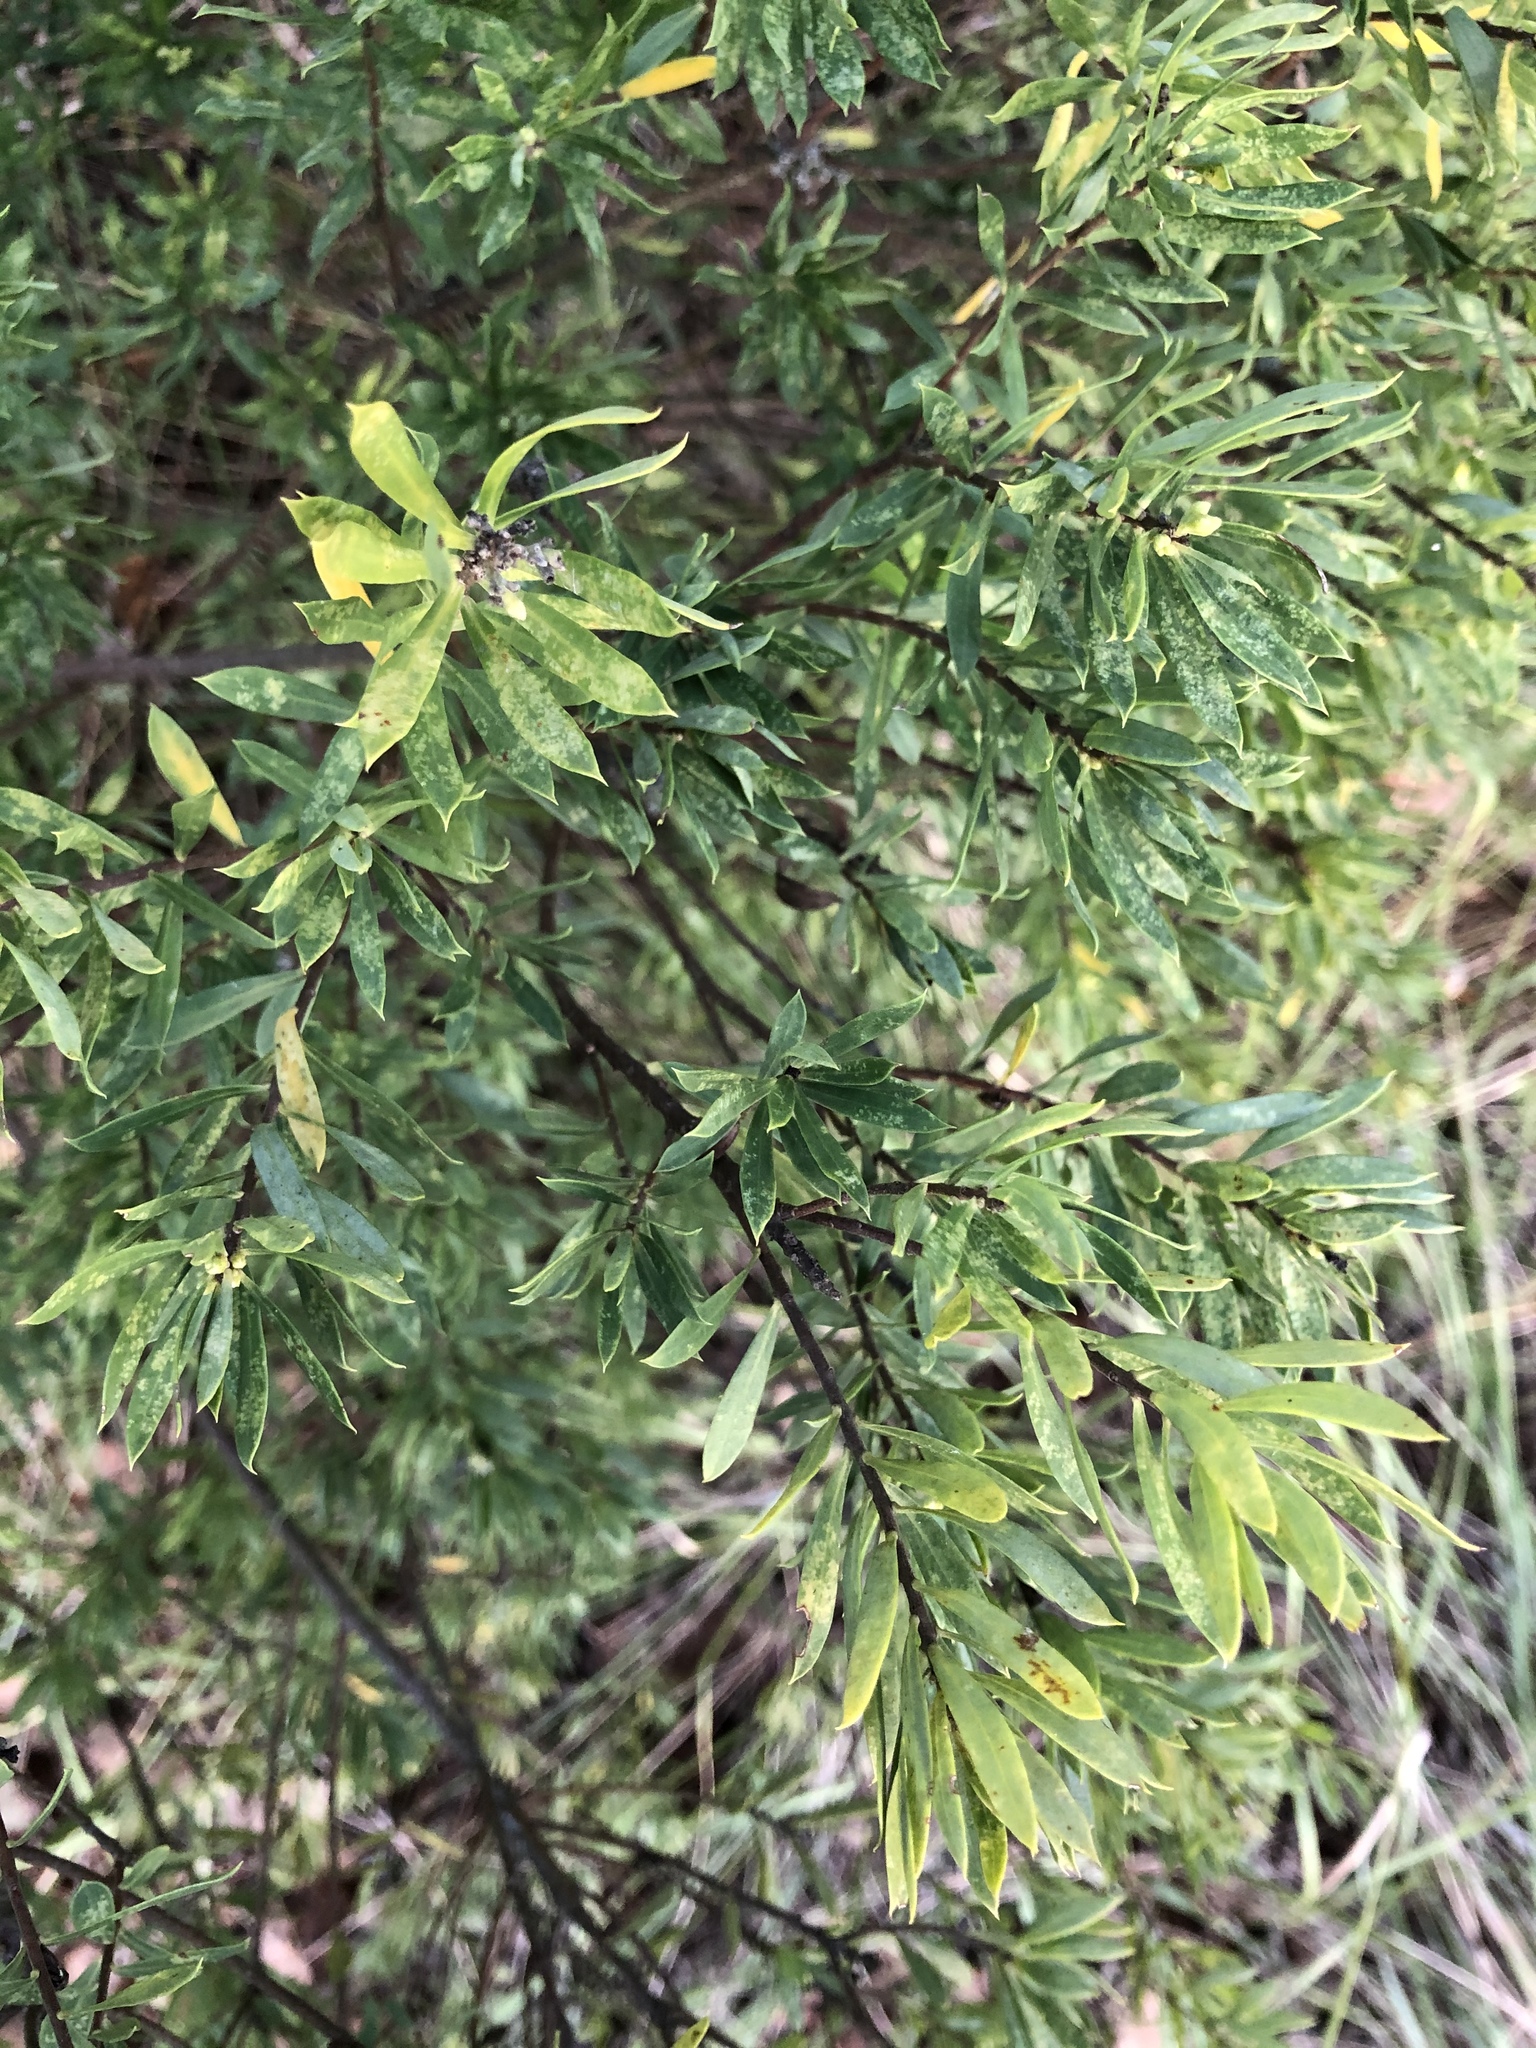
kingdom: Plantae
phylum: Tracheophyta
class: Magnoliopsida
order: Malvales
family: Thymelaeaceae
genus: Daphne
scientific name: Daphne gnidium
